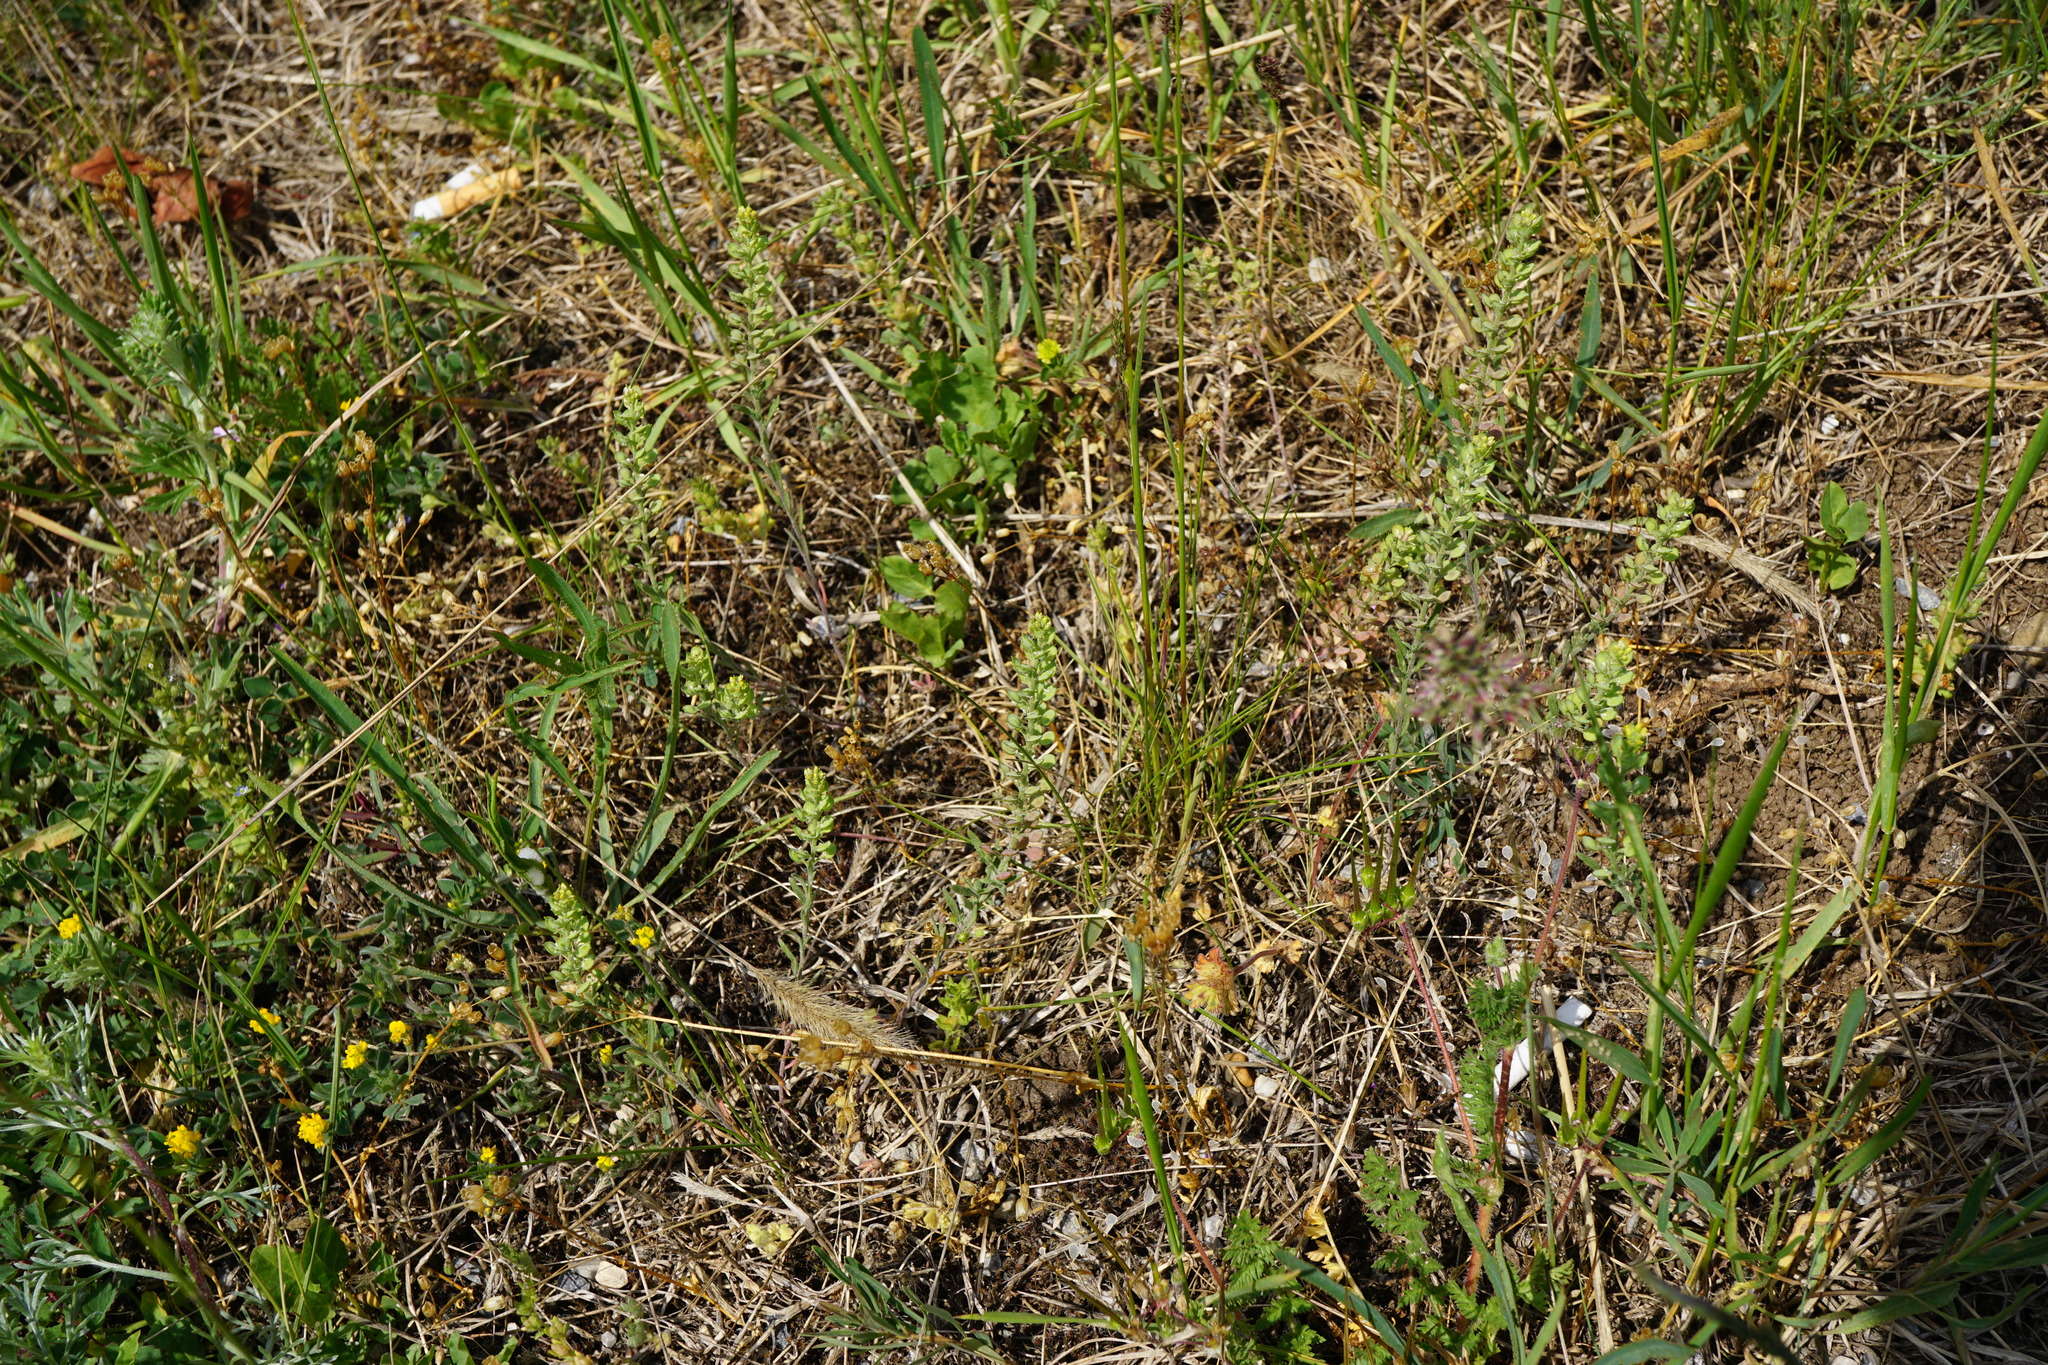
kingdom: Plantae
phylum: Tracheophyta
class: Magnoliopsida
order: Brassicales
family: Brassicaceae
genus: Alyssum
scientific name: Alyssum turkestanicum
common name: Desert alyssum
